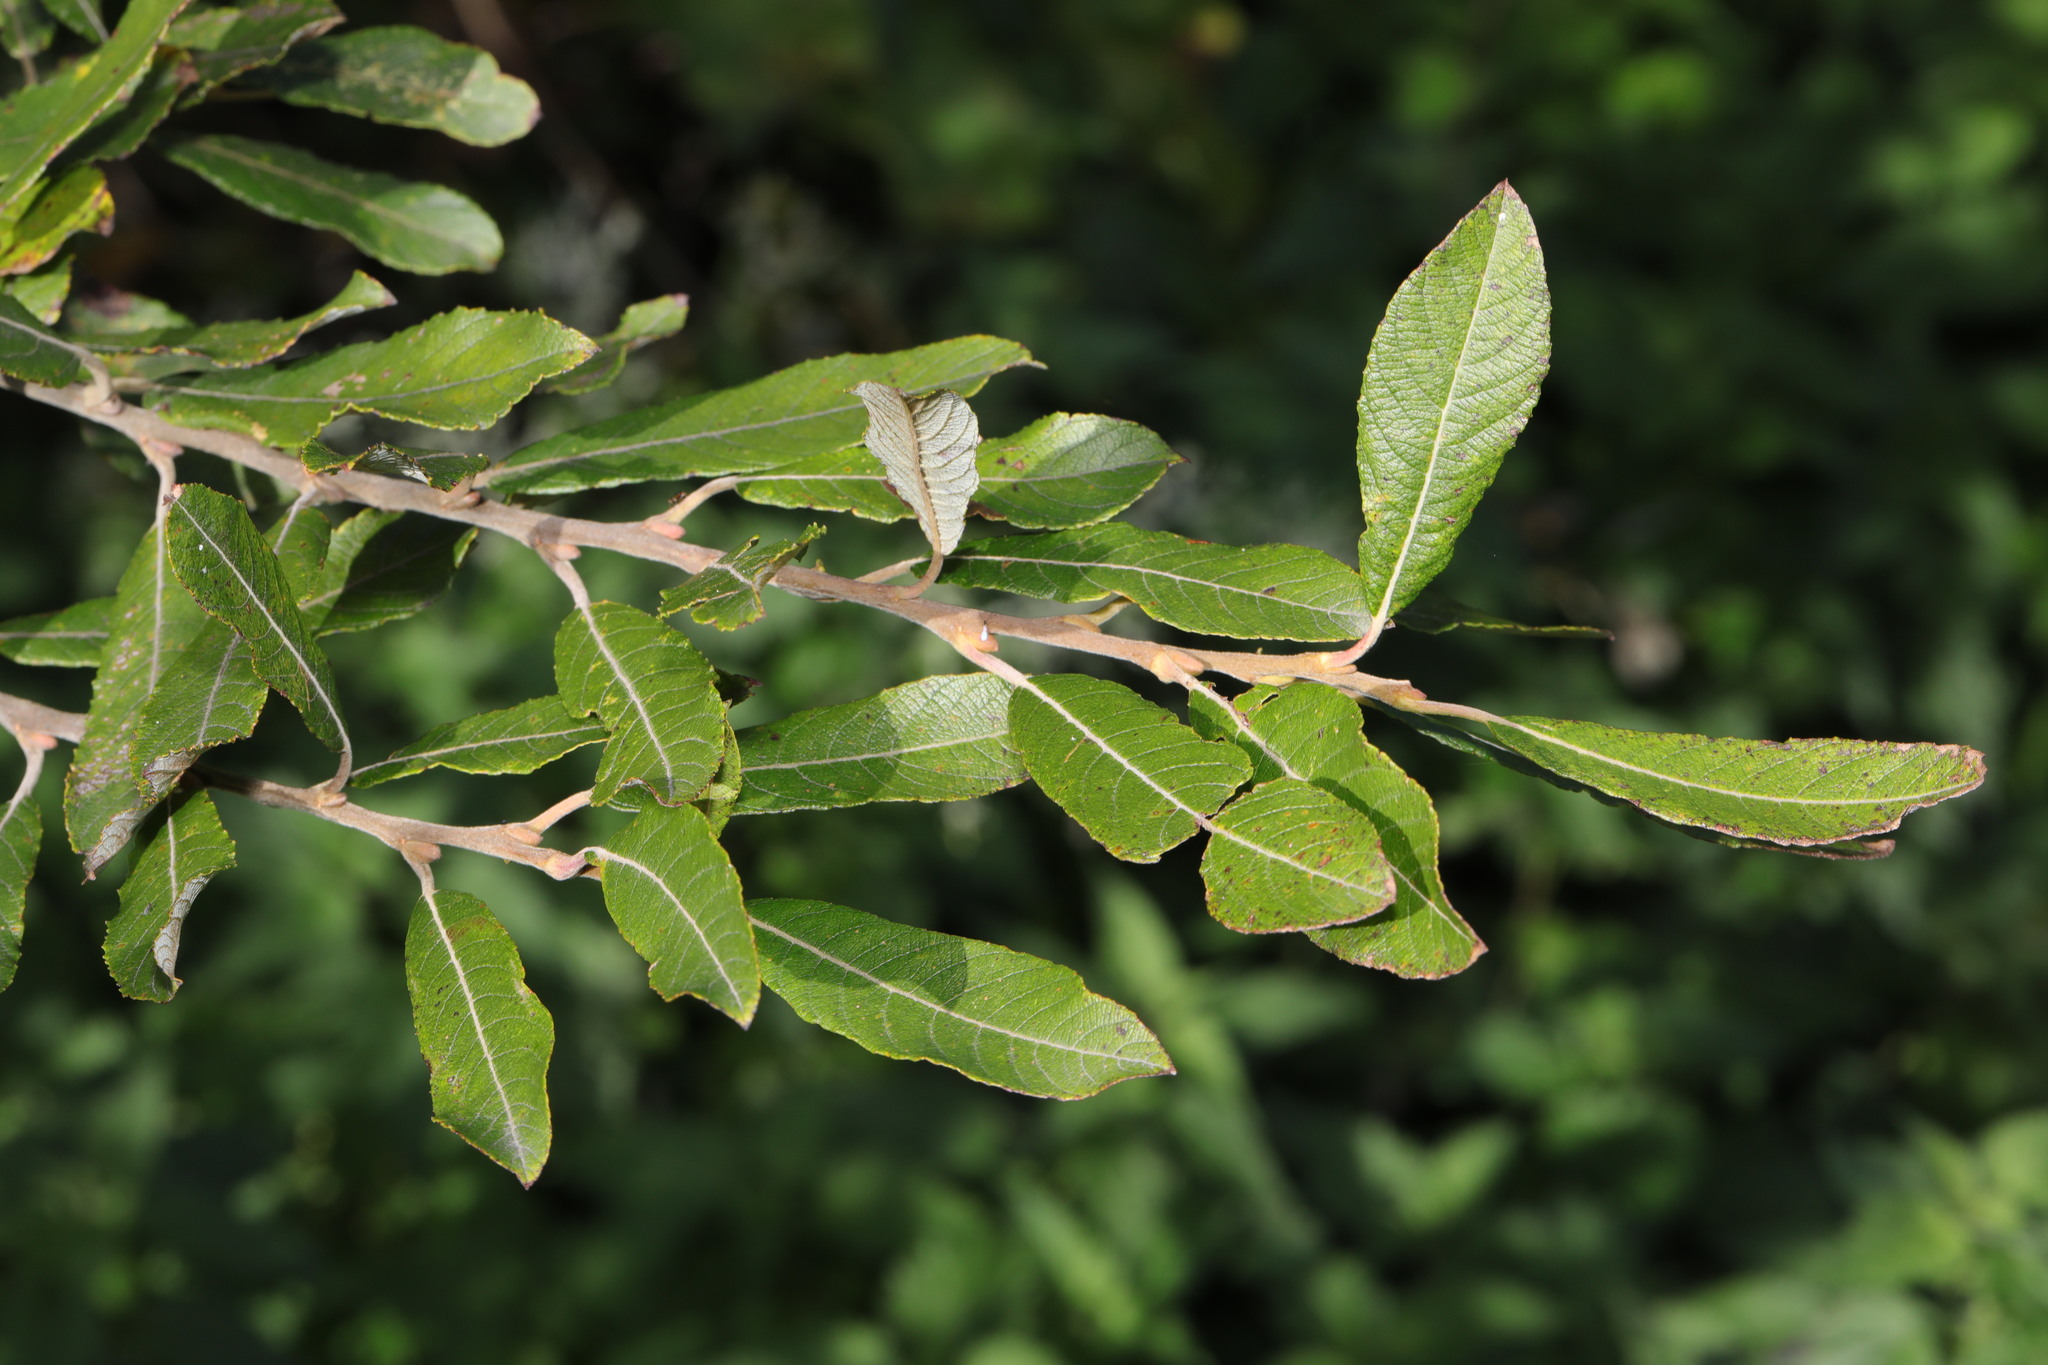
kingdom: Plantae
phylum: Tracheophyta
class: Magnoliopsida
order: Malpighiales
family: Salicaceae
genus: Salix
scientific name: Salix cinerea
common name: Common sallow
